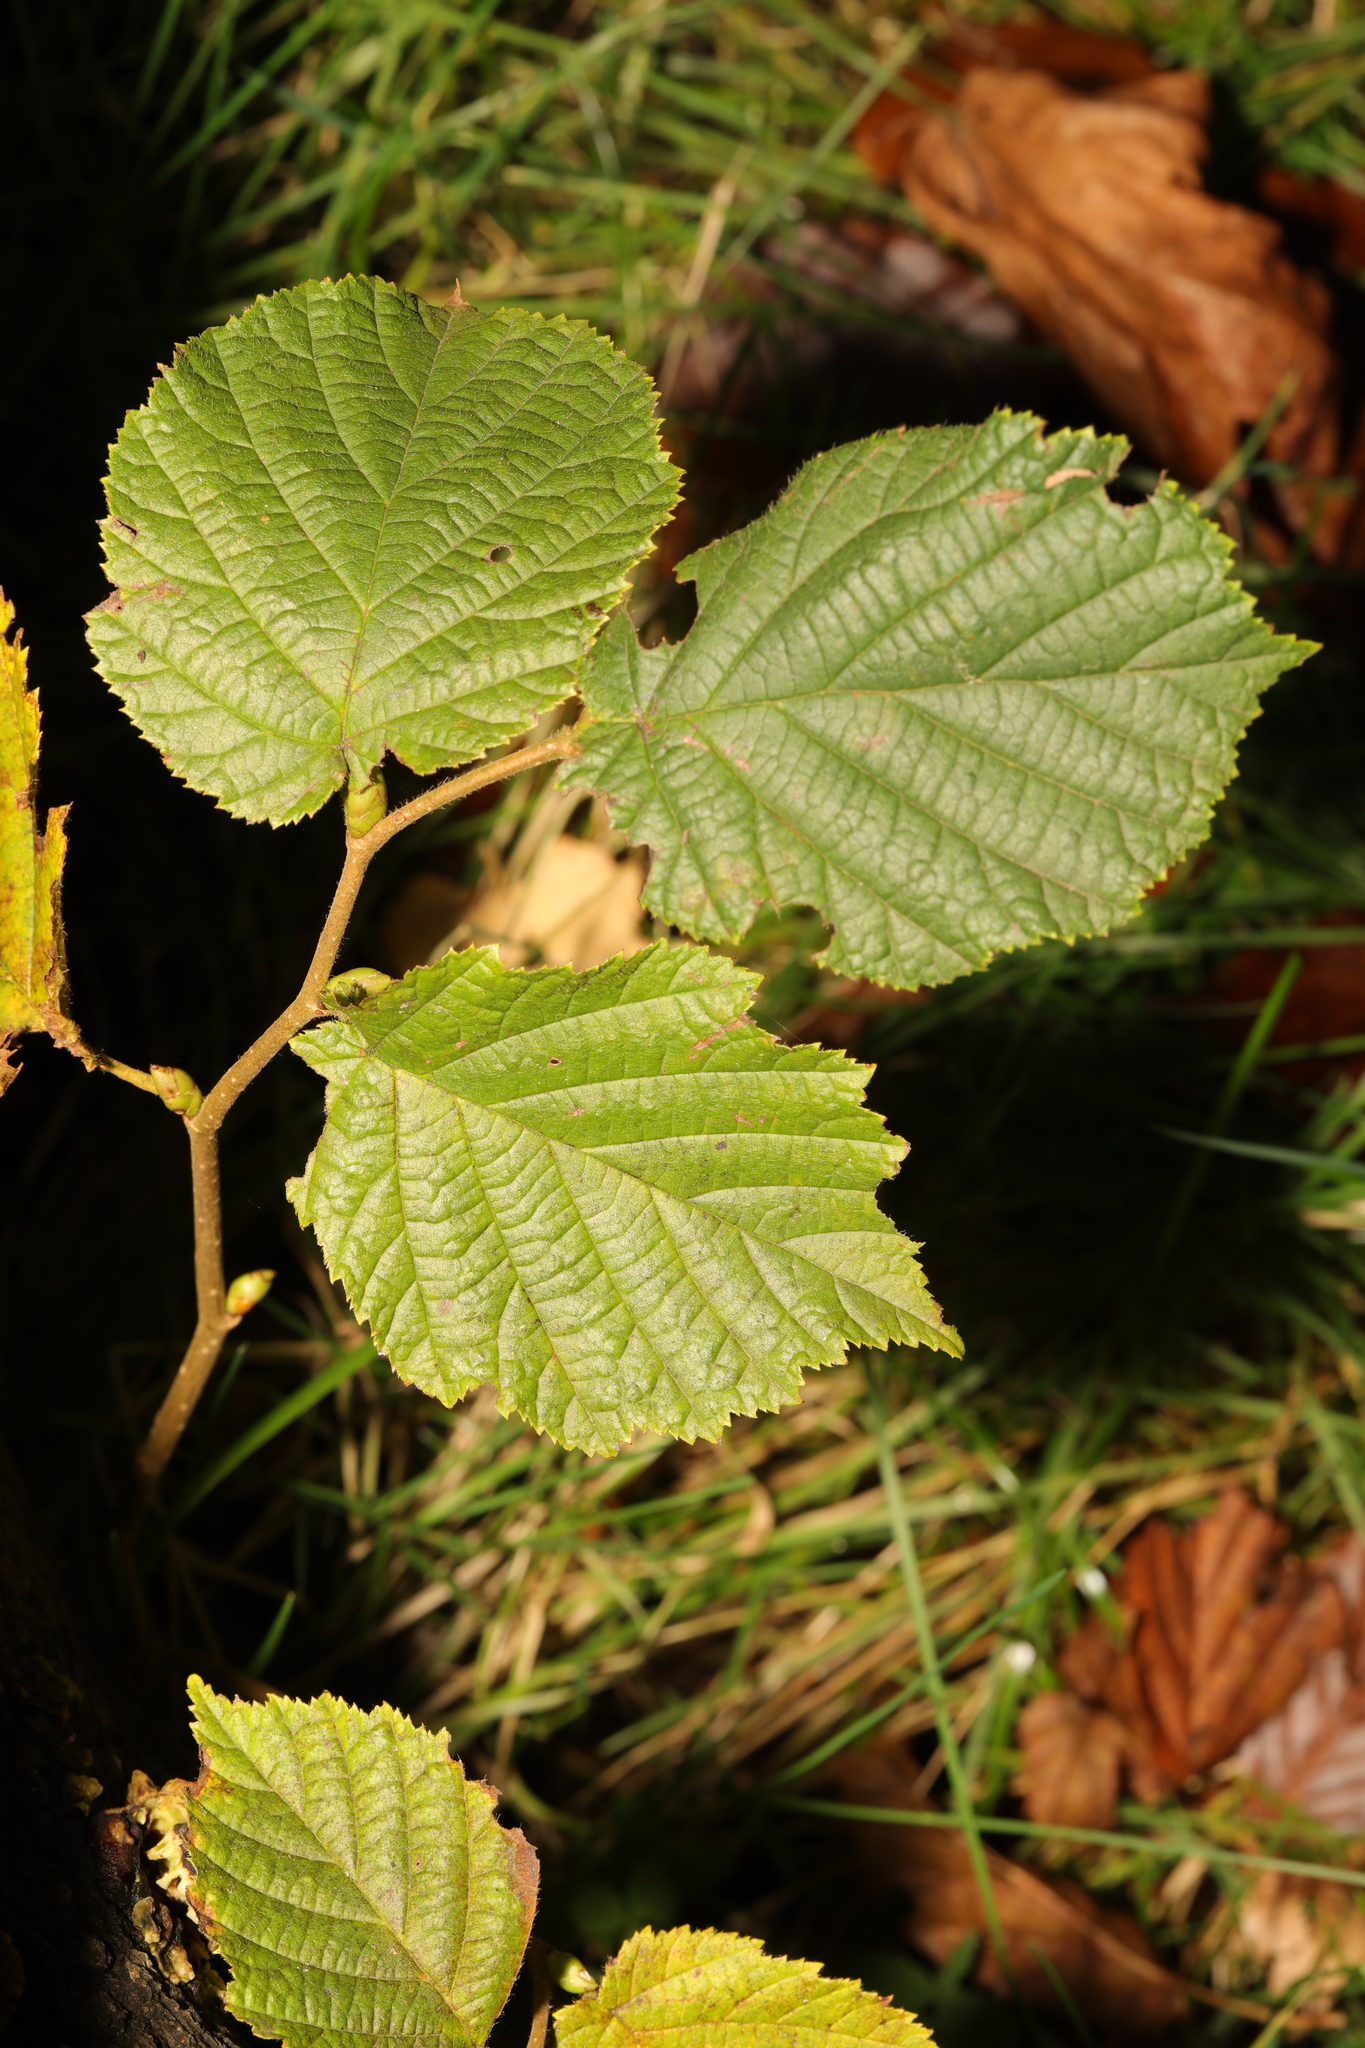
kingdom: Plantae
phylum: Tracheophyta
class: Magnoliopsida
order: Fagales
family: Betulaceae
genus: Corylus
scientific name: Corylus avellana
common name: European hazel
